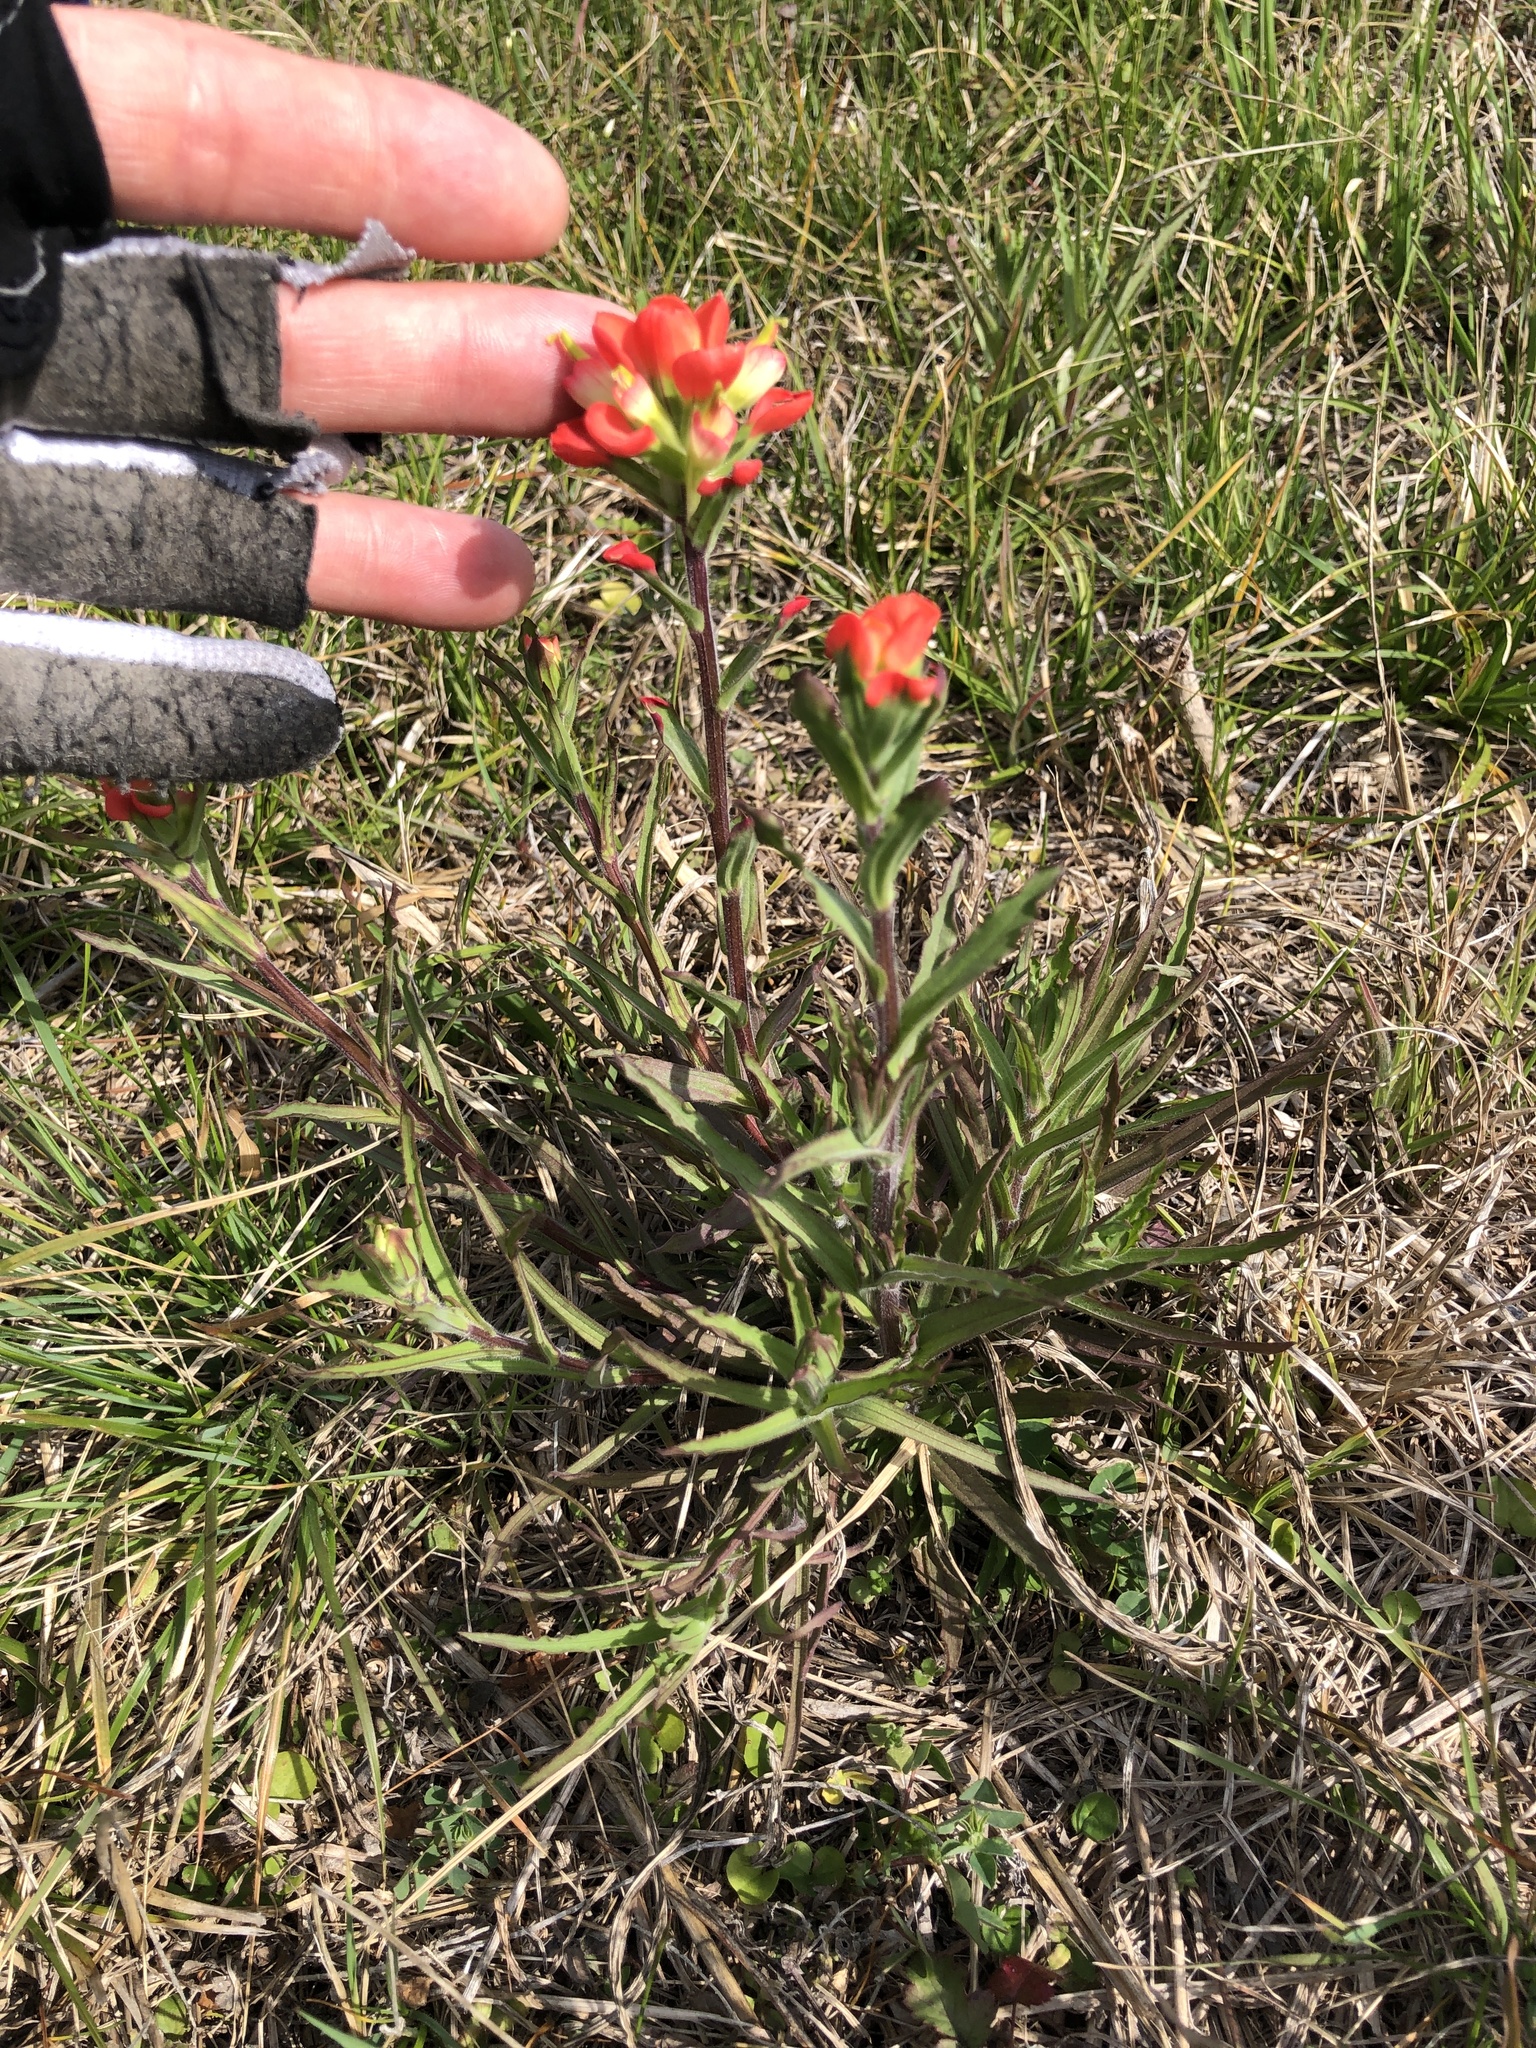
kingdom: Plantae
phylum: Tracheophyta
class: Magnoliopsida
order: Lamiales
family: Orobanchaceae
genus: Castilleja
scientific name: Castilleja indivisa
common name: Texas paintbrush
